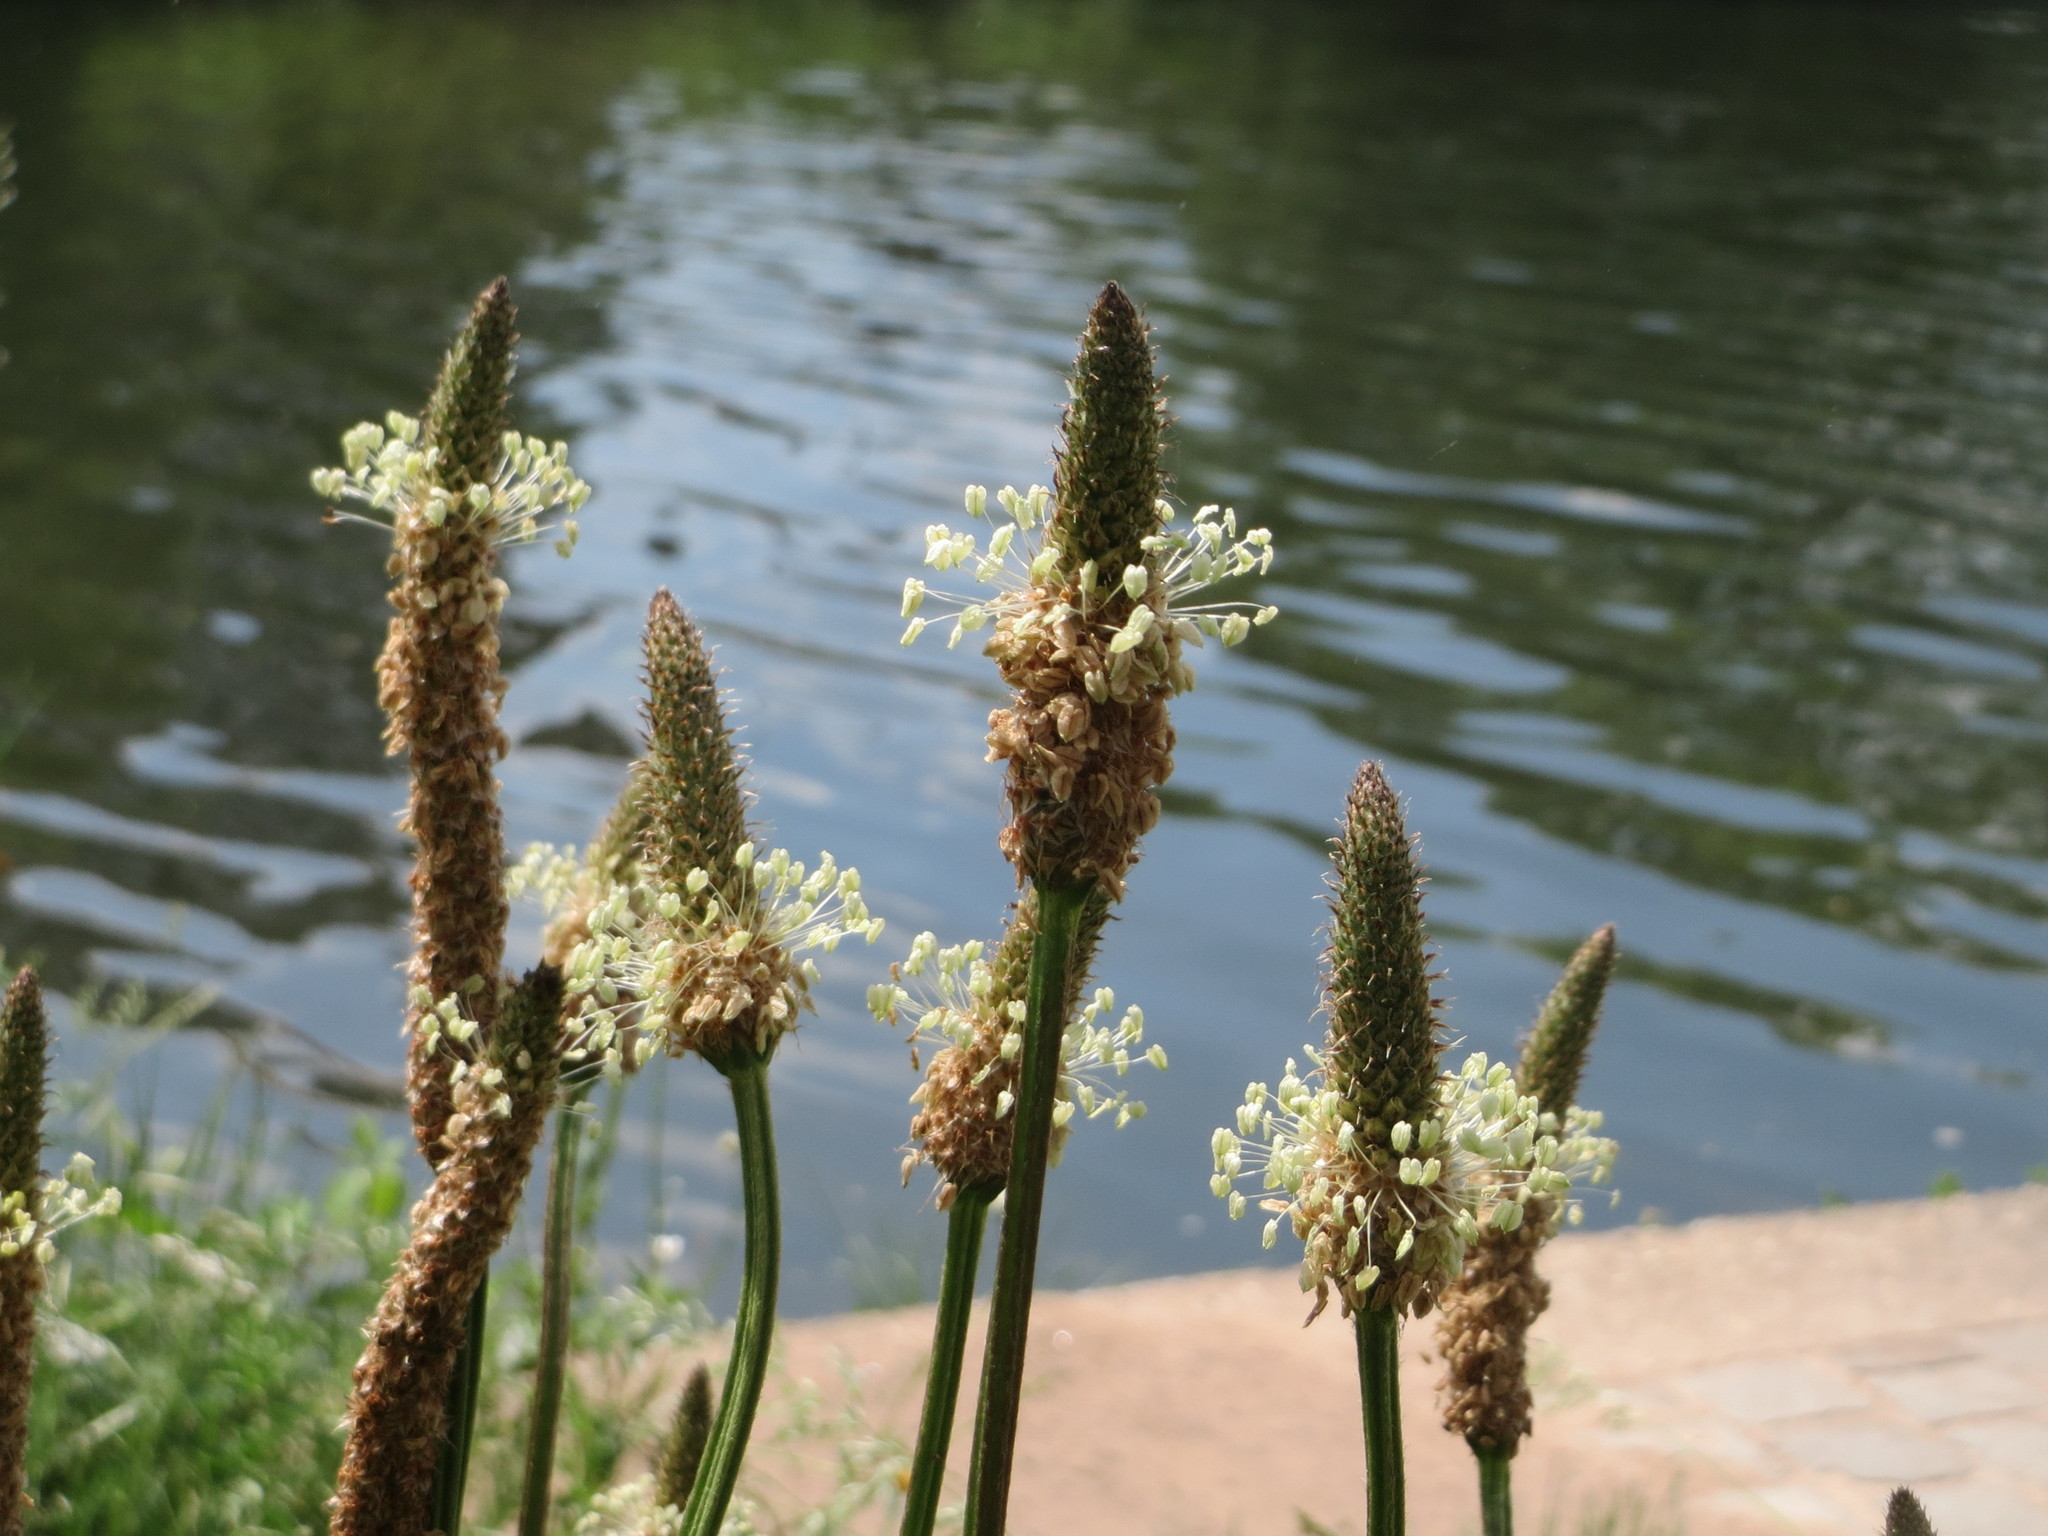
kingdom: Plantae
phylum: Tracheophyta
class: Magnoliopsida
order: Lamiales
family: Plantaginaceae
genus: Plantago
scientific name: Plantago lanceolata
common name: Ribwort plantain
